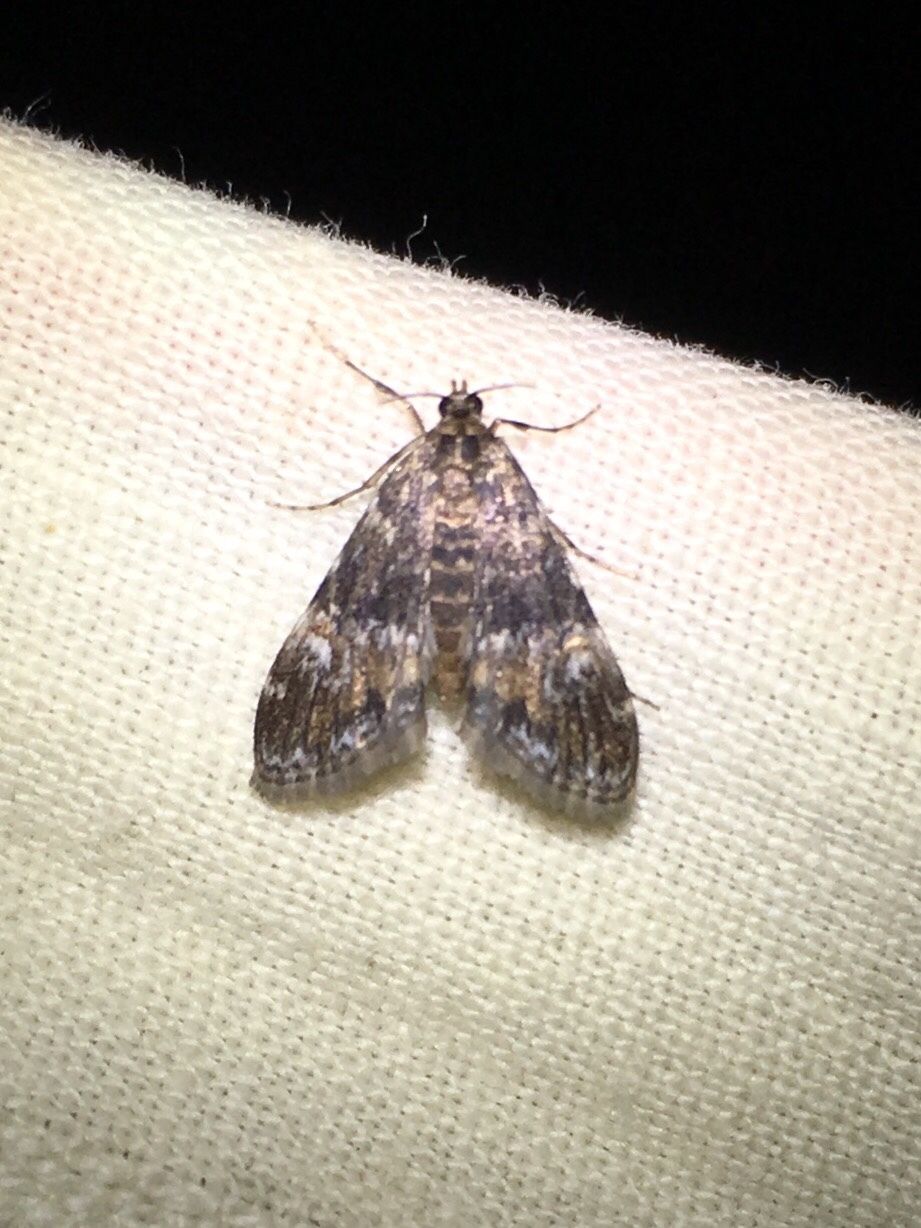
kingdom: Animalia
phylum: Arthropoda
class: Insecta
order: Lepidoptera
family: Crambidae
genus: Elophila
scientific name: Elophila obliteralis
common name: Waterlily leafcutter moth
